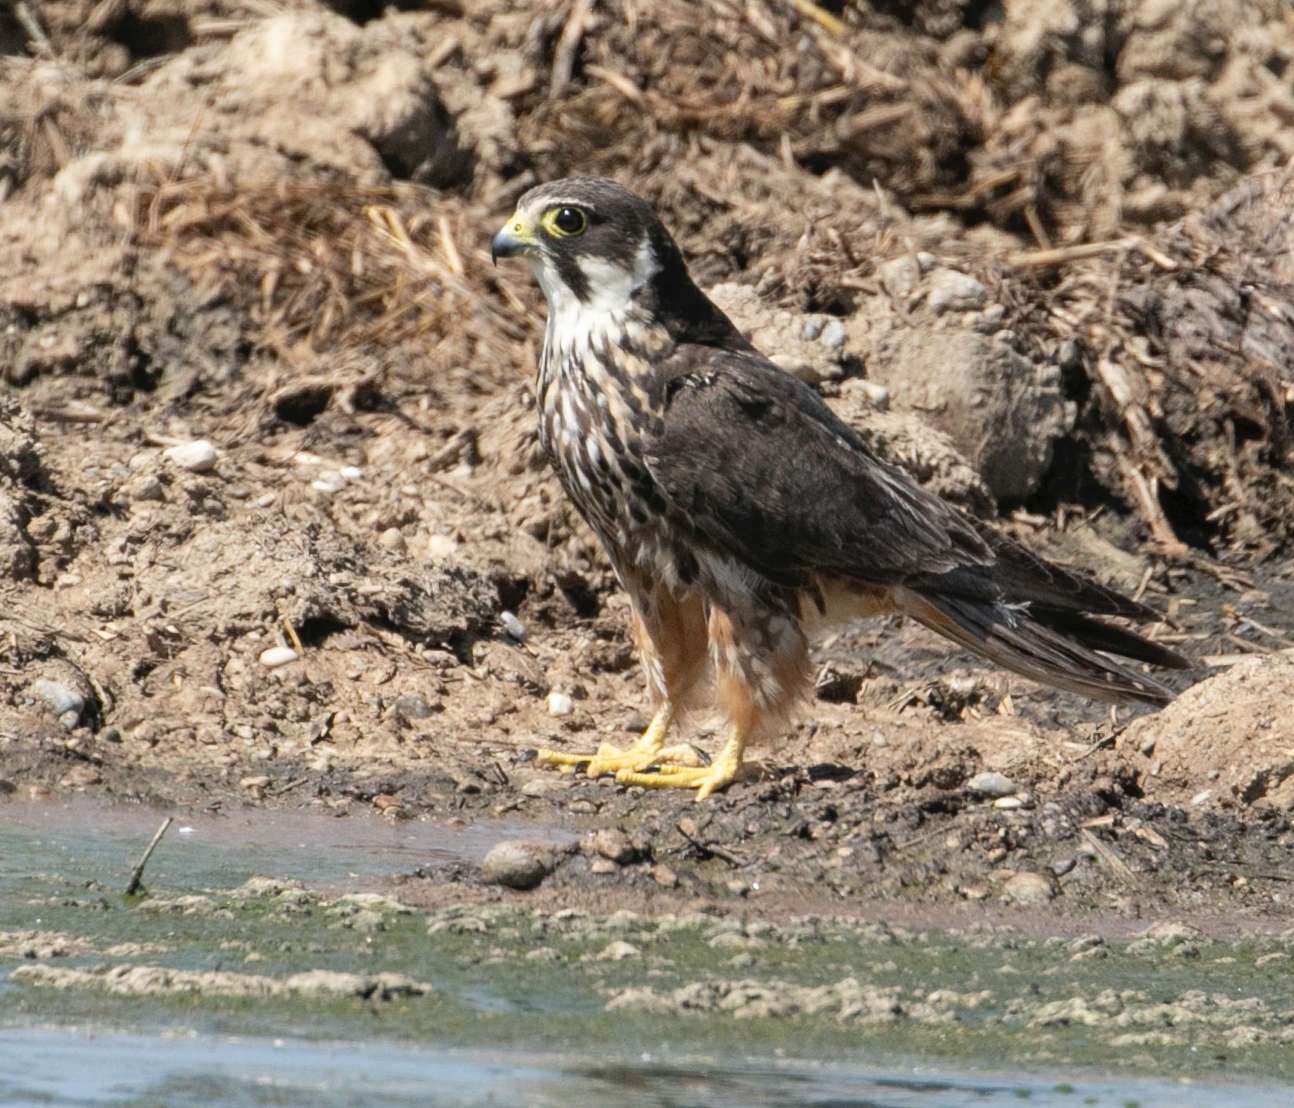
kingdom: Animalia
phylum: Chordata
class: Aves
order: Falconiformes
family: Falconidae
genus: Falco
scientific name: Falco subbuteo
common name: Eurasian hobby
